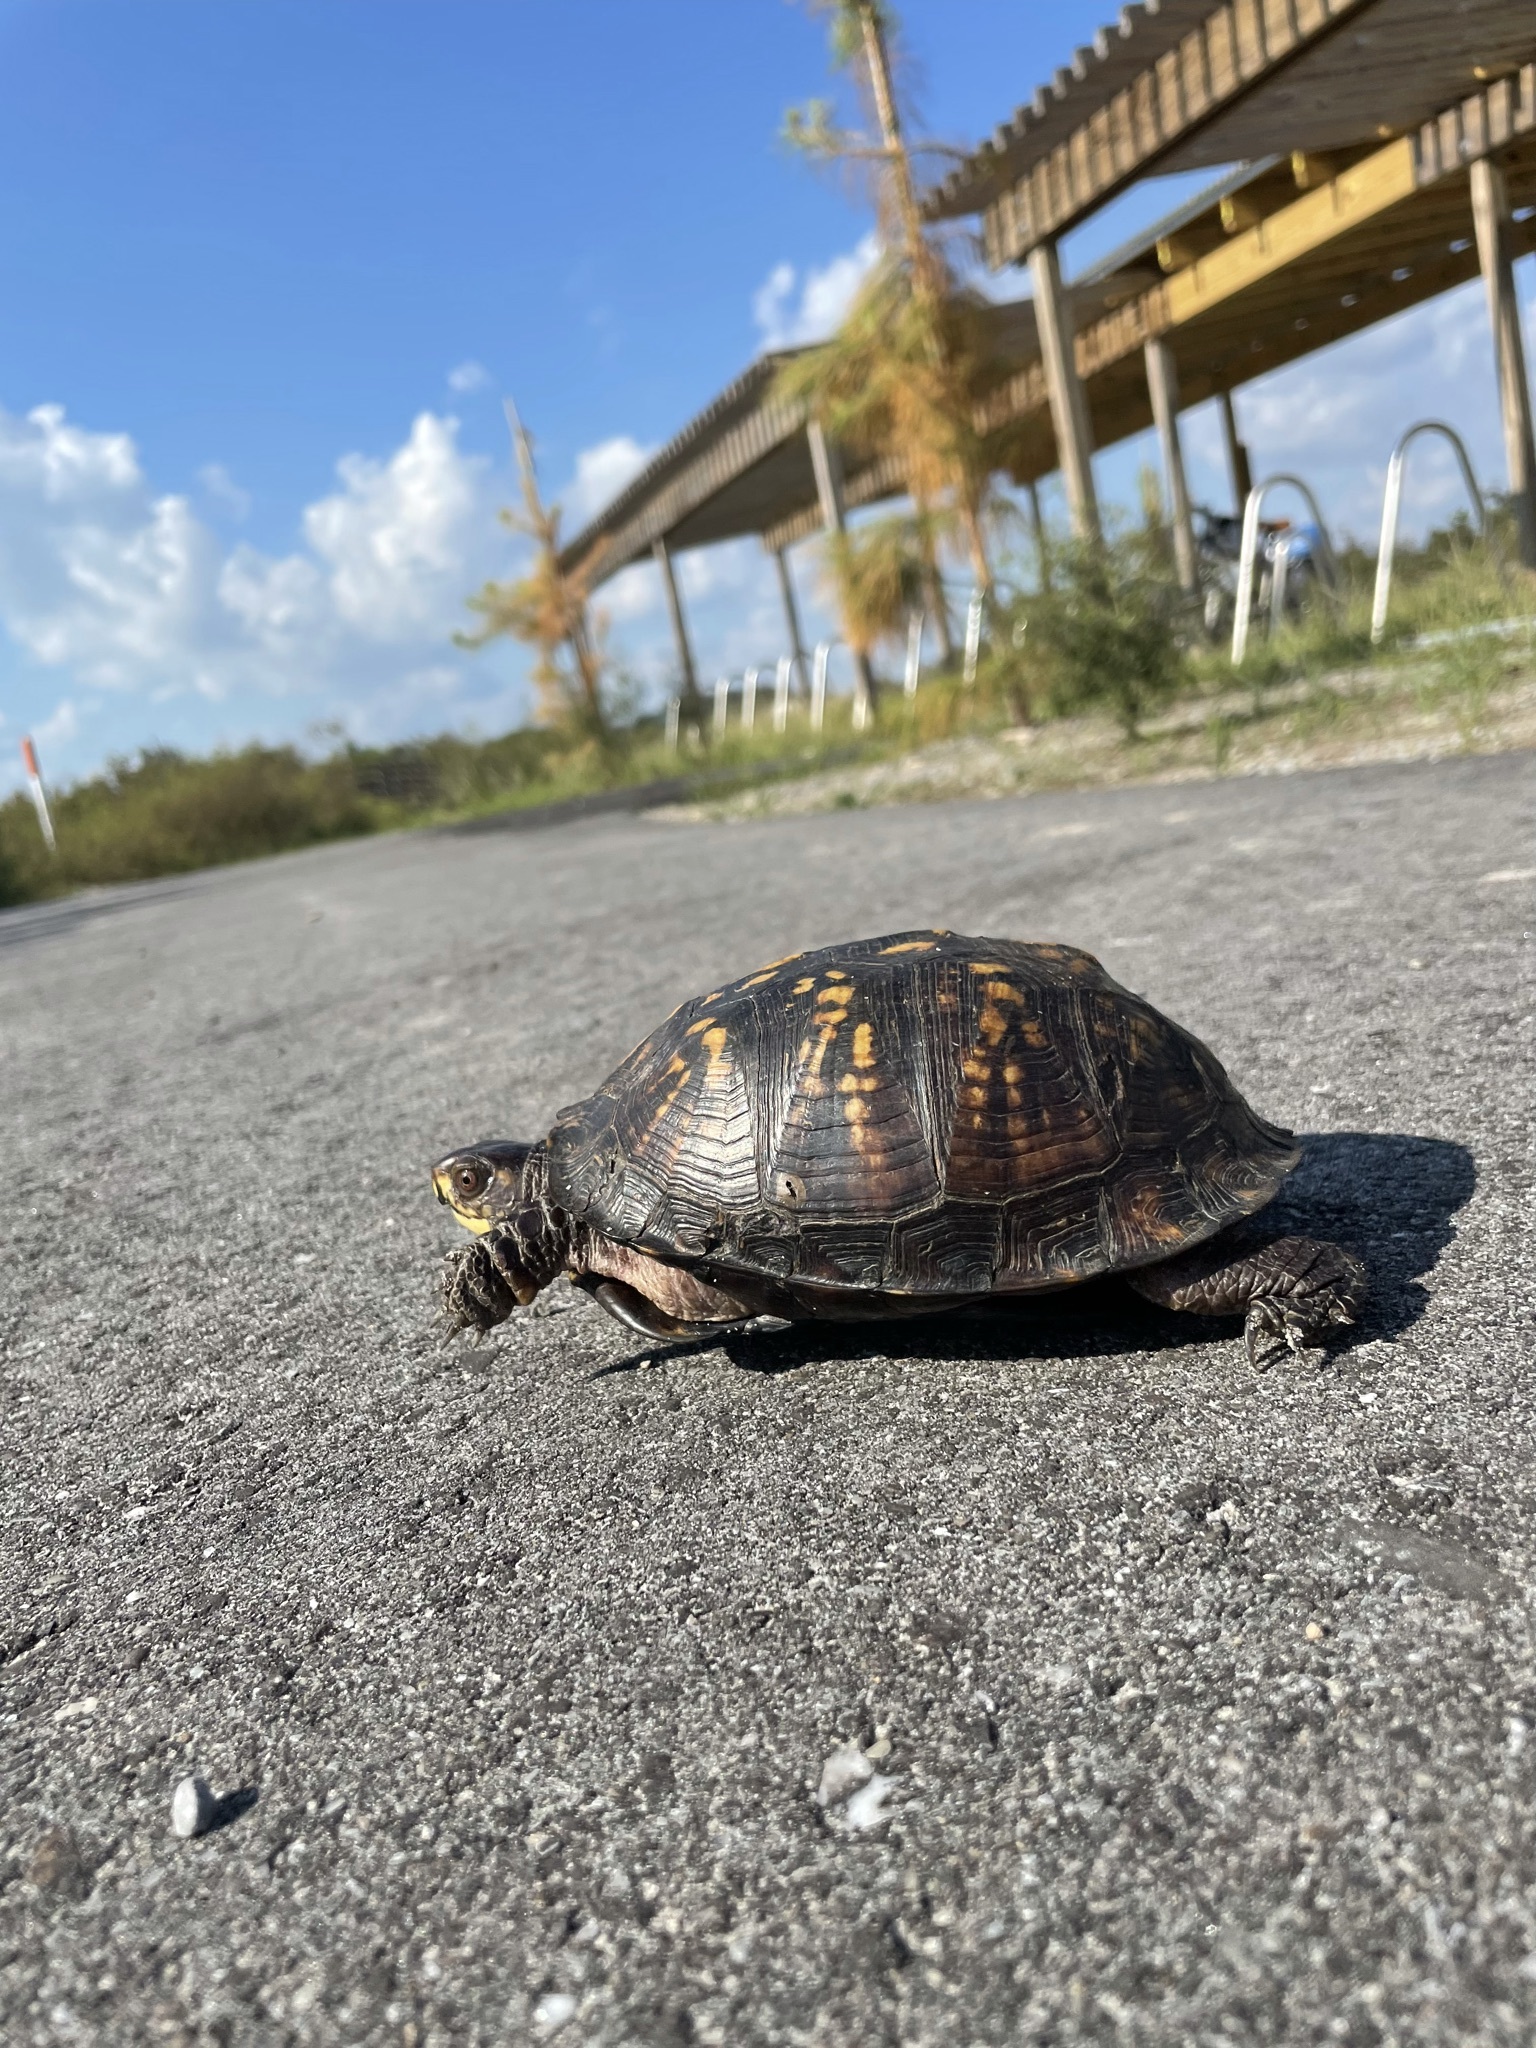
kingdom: Animalia
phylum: Chordata
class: Testudines
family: Emydidae
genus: Terrapene
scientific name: Terrapene carolina
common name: Common box turtle
